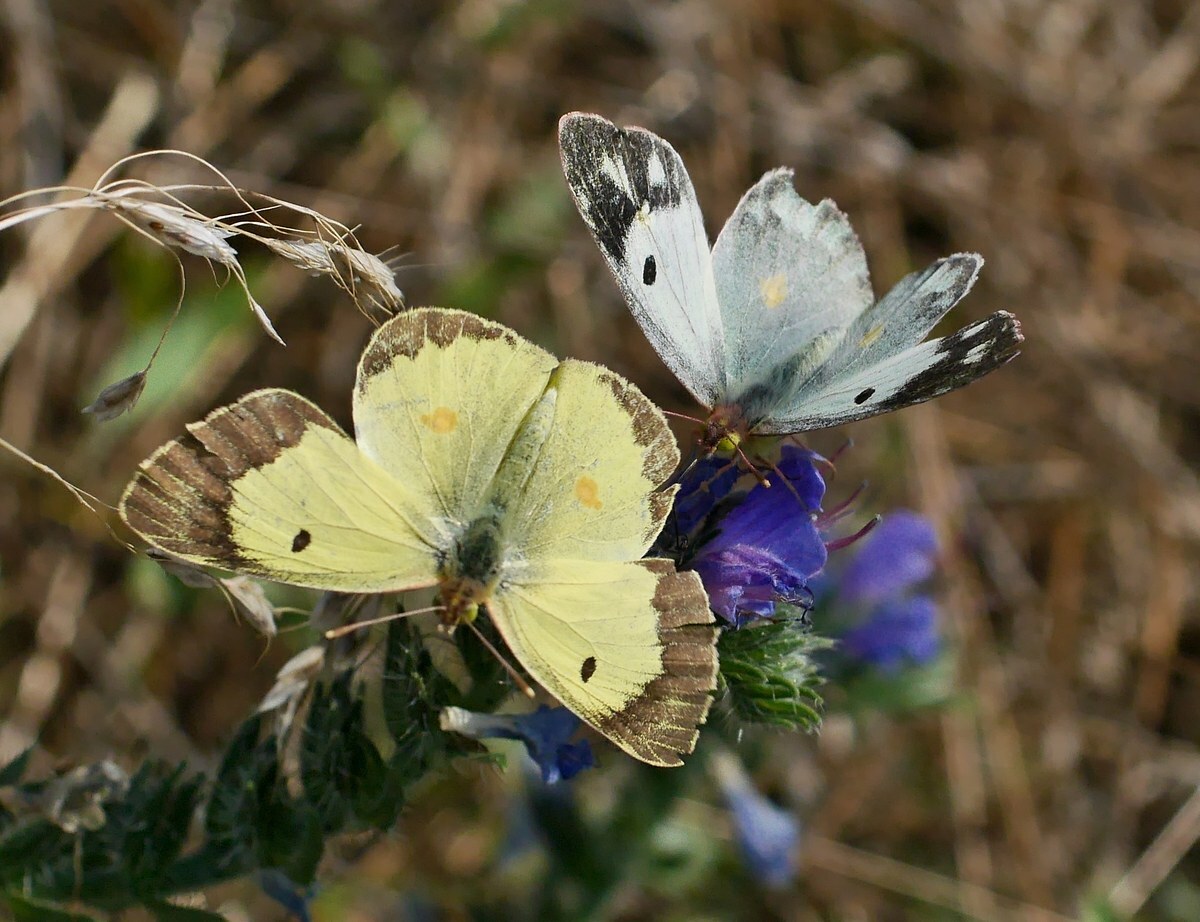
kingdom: Animalia
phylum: Arthropoda
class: Insecta
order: Lepidoptera
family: Pieridae
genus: Colias
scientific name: Colias erate
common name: Eastern pale clouded yellow
